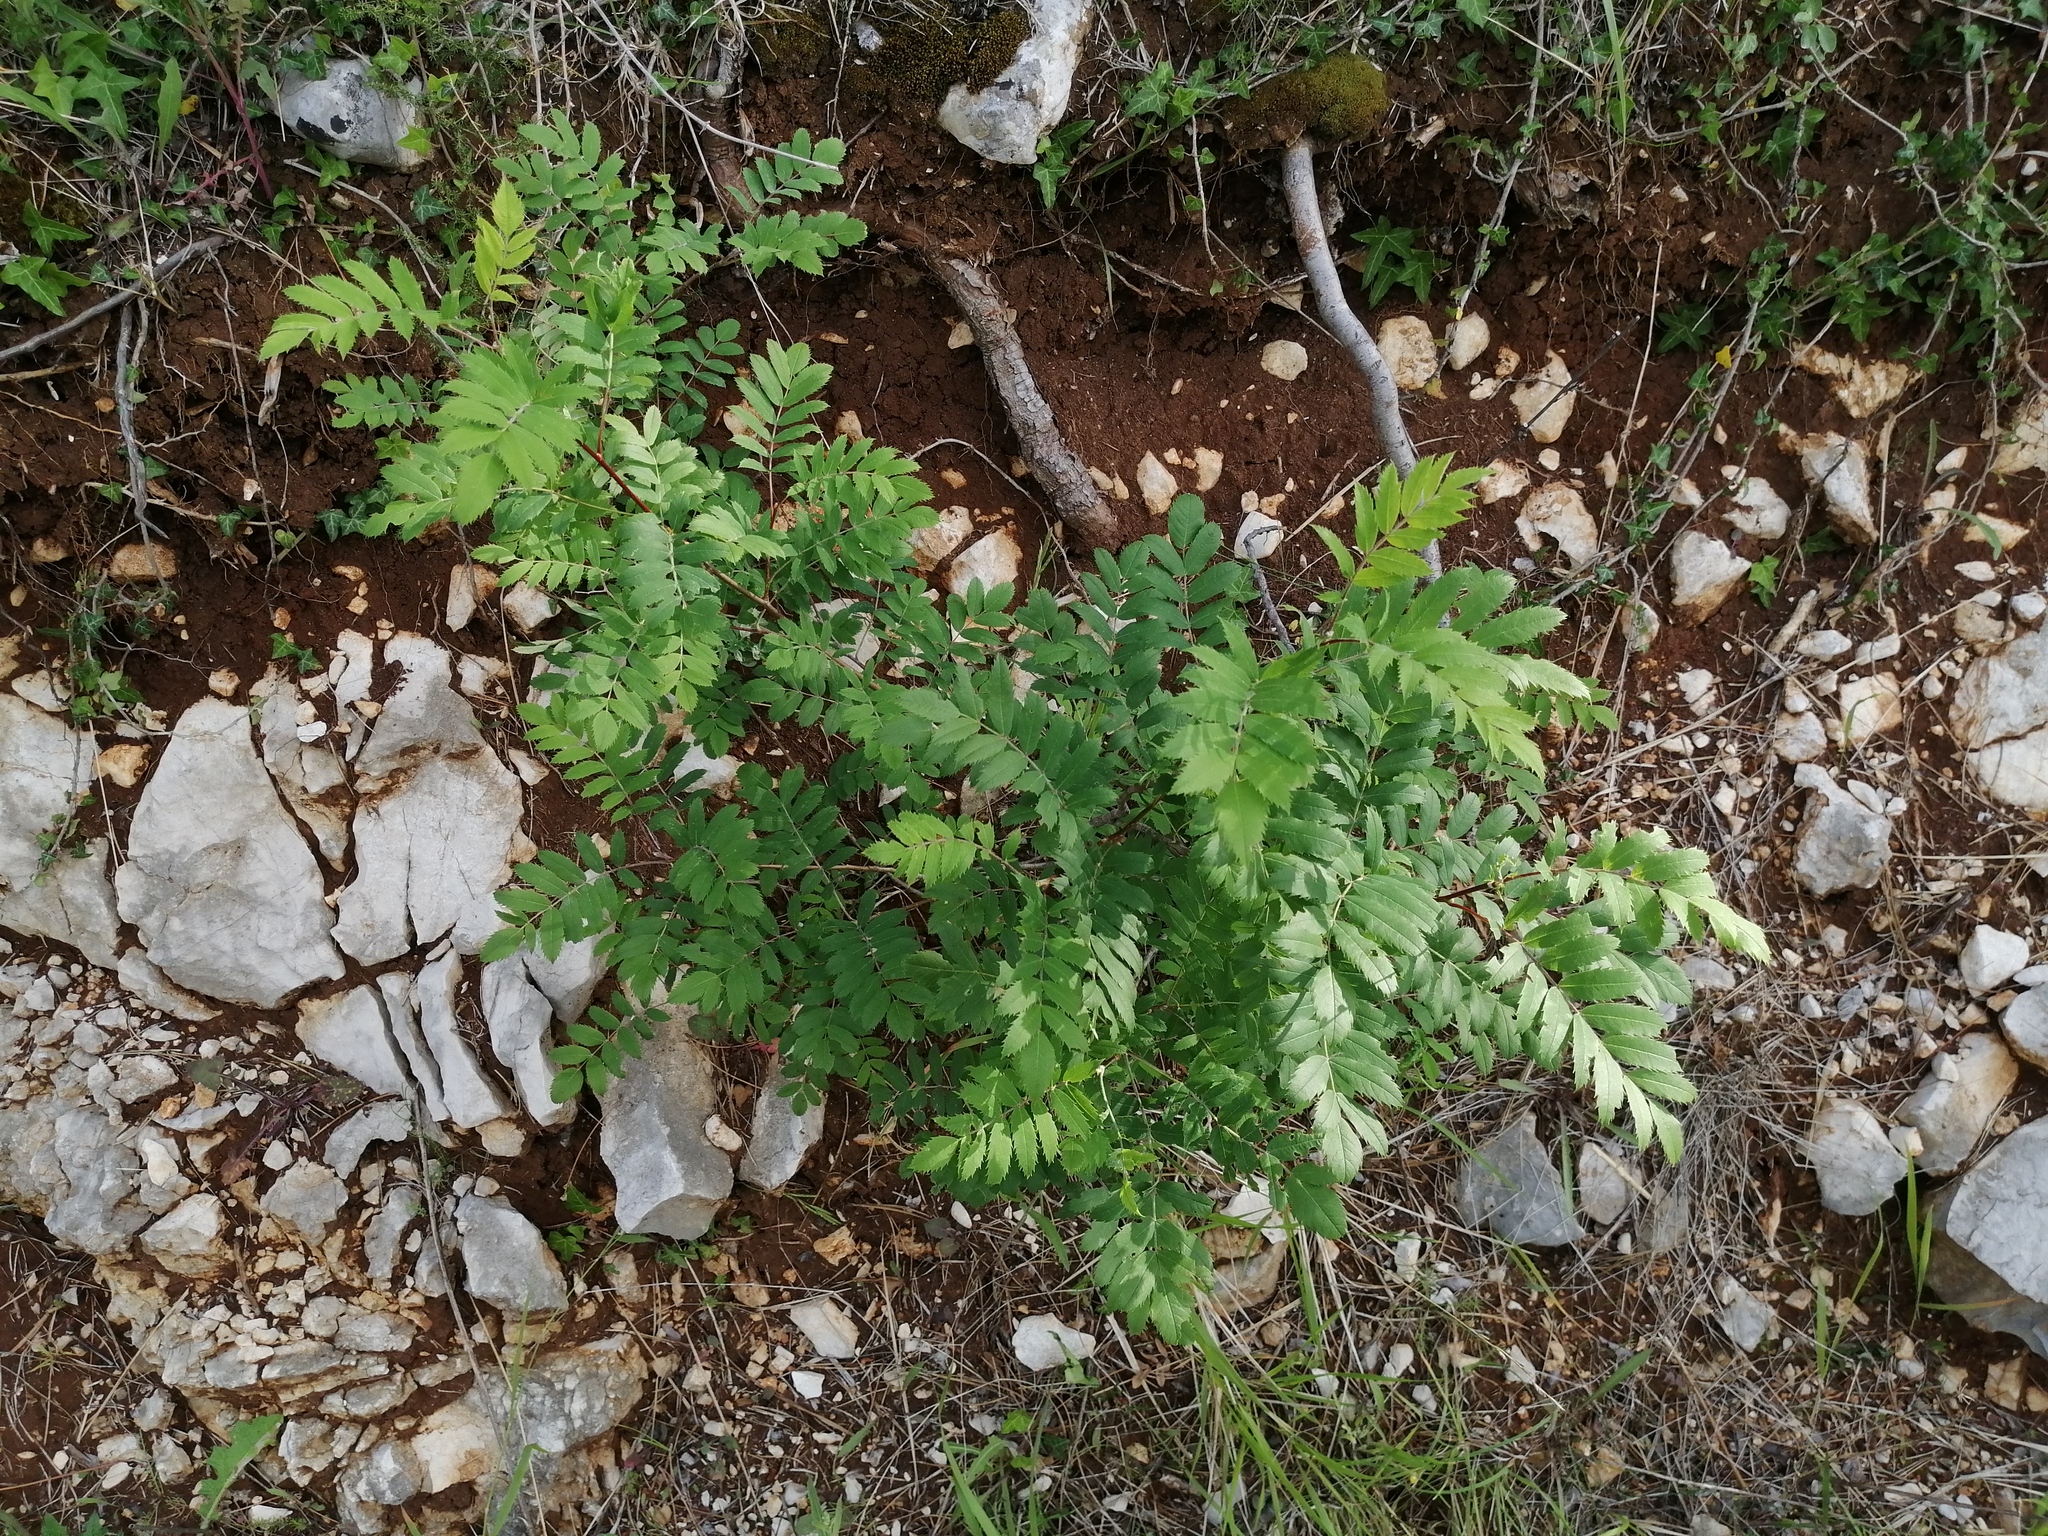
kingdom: Plantae
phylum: Tracheophyta
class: Magnoliopsida
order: Rosales
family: Rosaceae
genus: Cormus
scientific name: Cormus domestica
